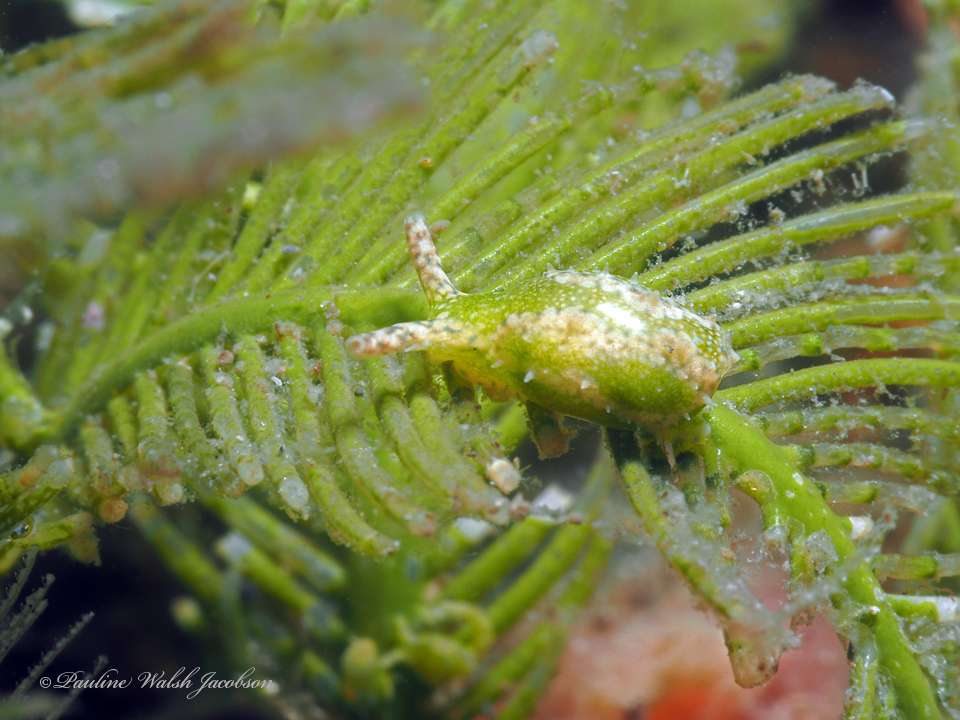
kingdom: Animalia
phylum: Mollusca
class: Gastropoda
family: Oxynoidae
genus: Oxynoe
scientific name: Oxynoe antillarum
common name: Antilles oxynoe
